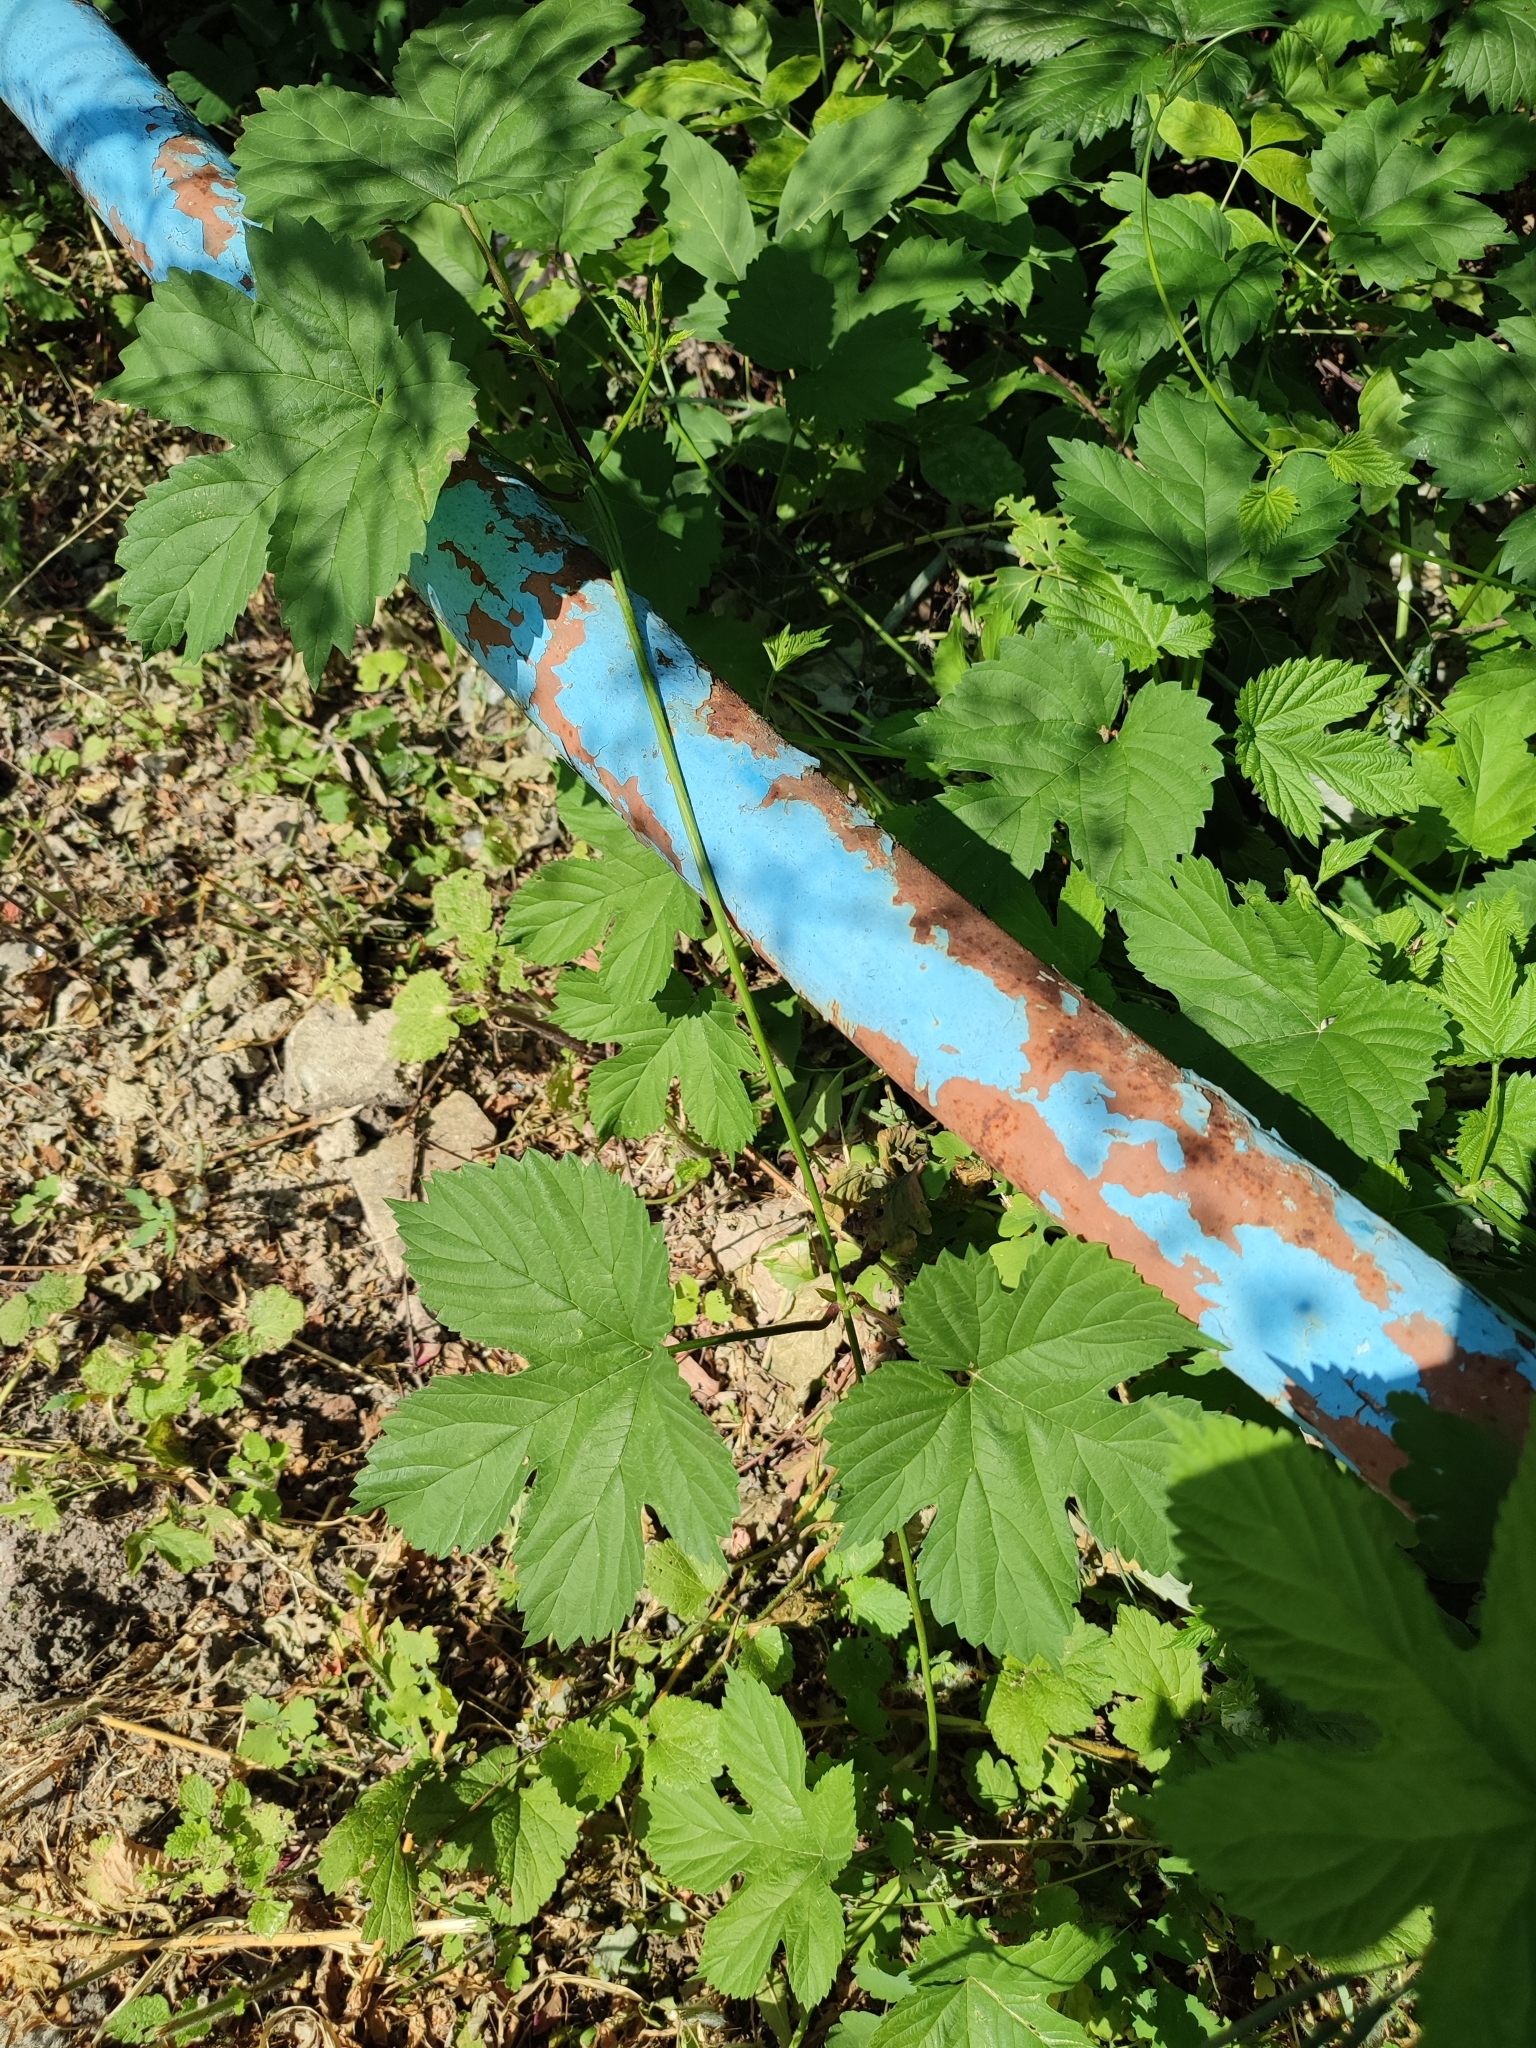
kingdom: Plantae
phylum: Tracheophyta
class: Magnoliopsida
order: Rosales
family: Cannabaceae
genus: Humulus
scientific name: Humulus lupulus
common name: Hop
